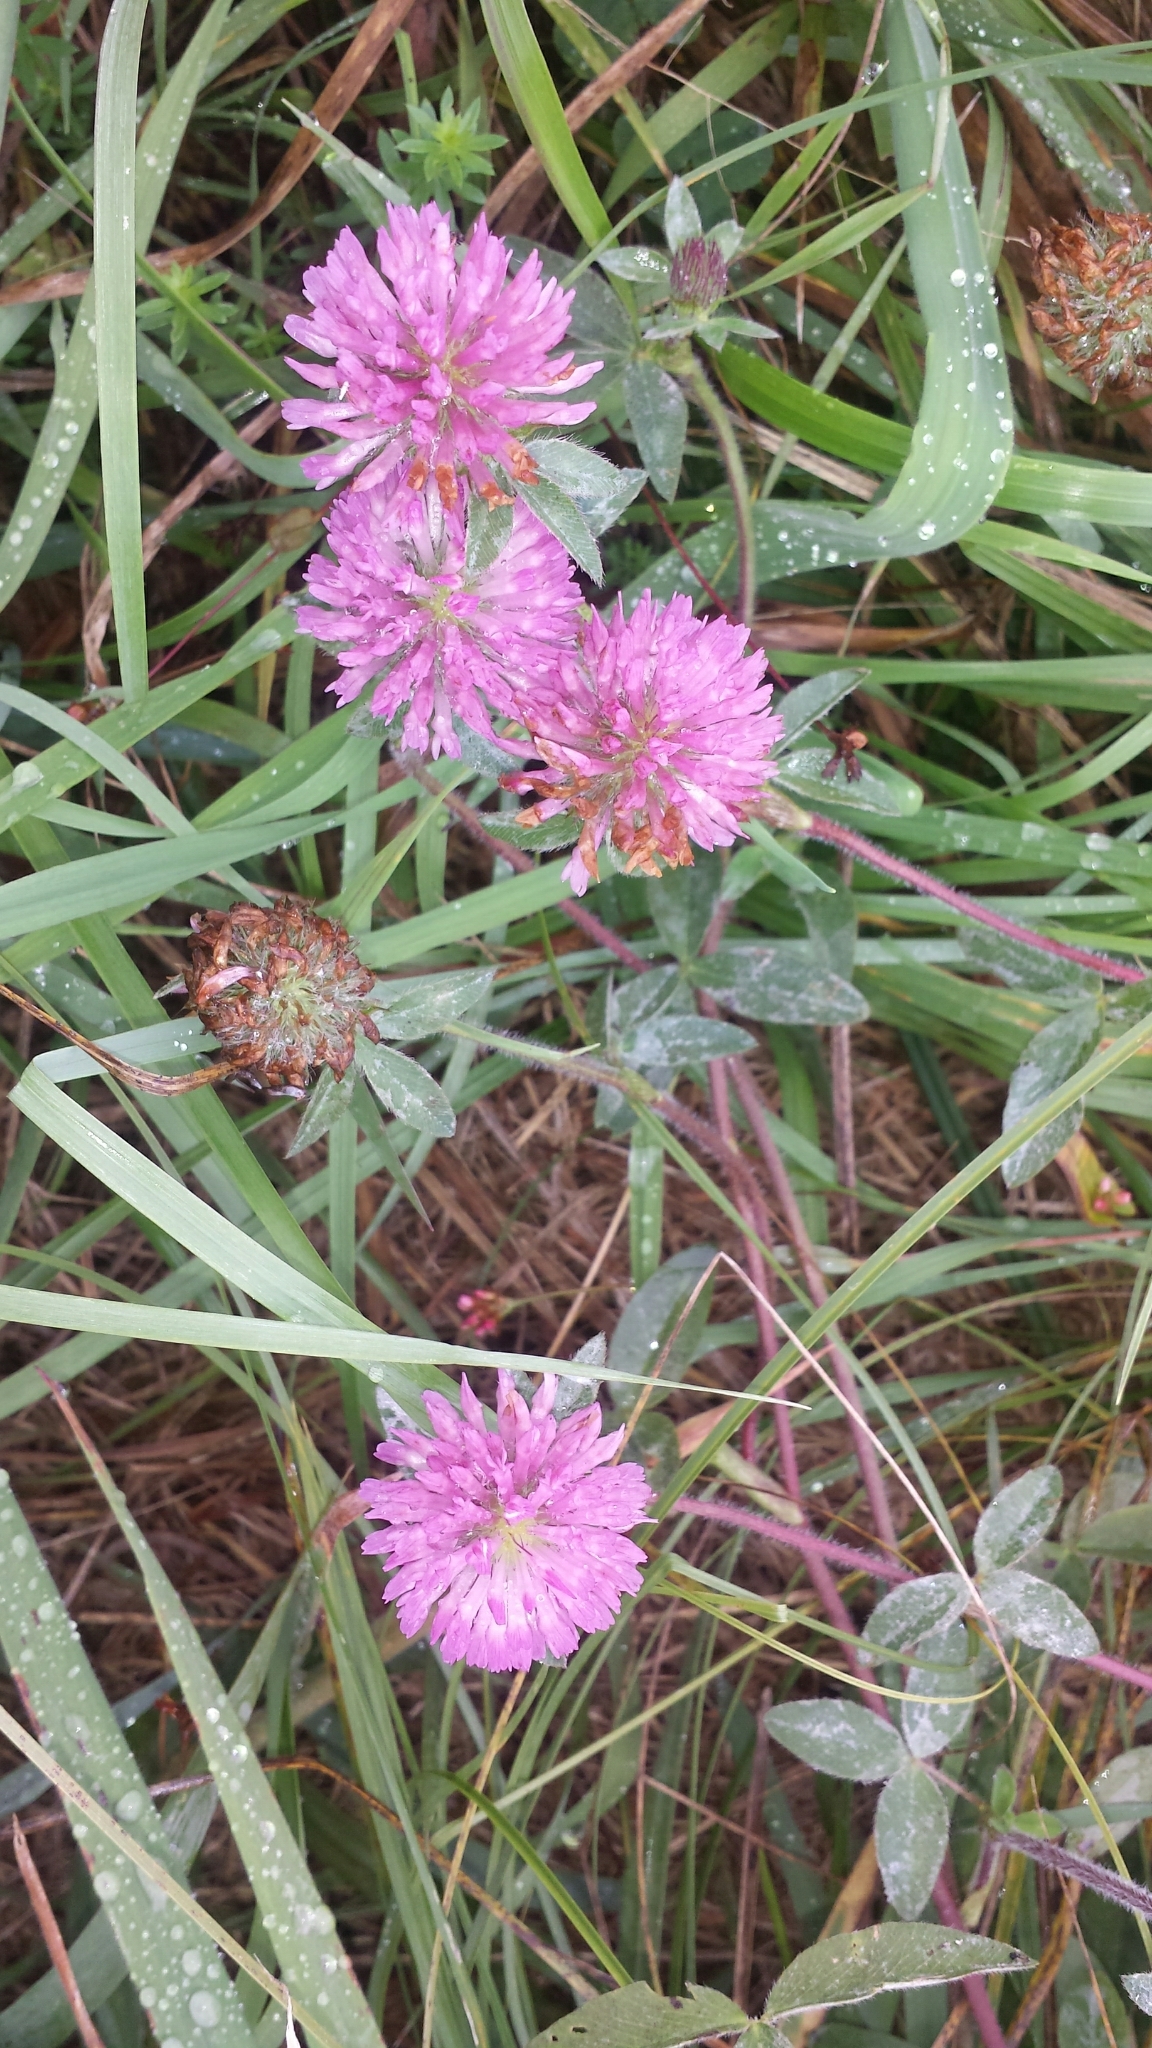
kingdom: Plantae
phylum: Tracheophyta
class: Magnoliopsida
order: Fabales
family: Fabaceae
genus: Trifolium
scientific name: Trifolium pratense
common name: Red clover
